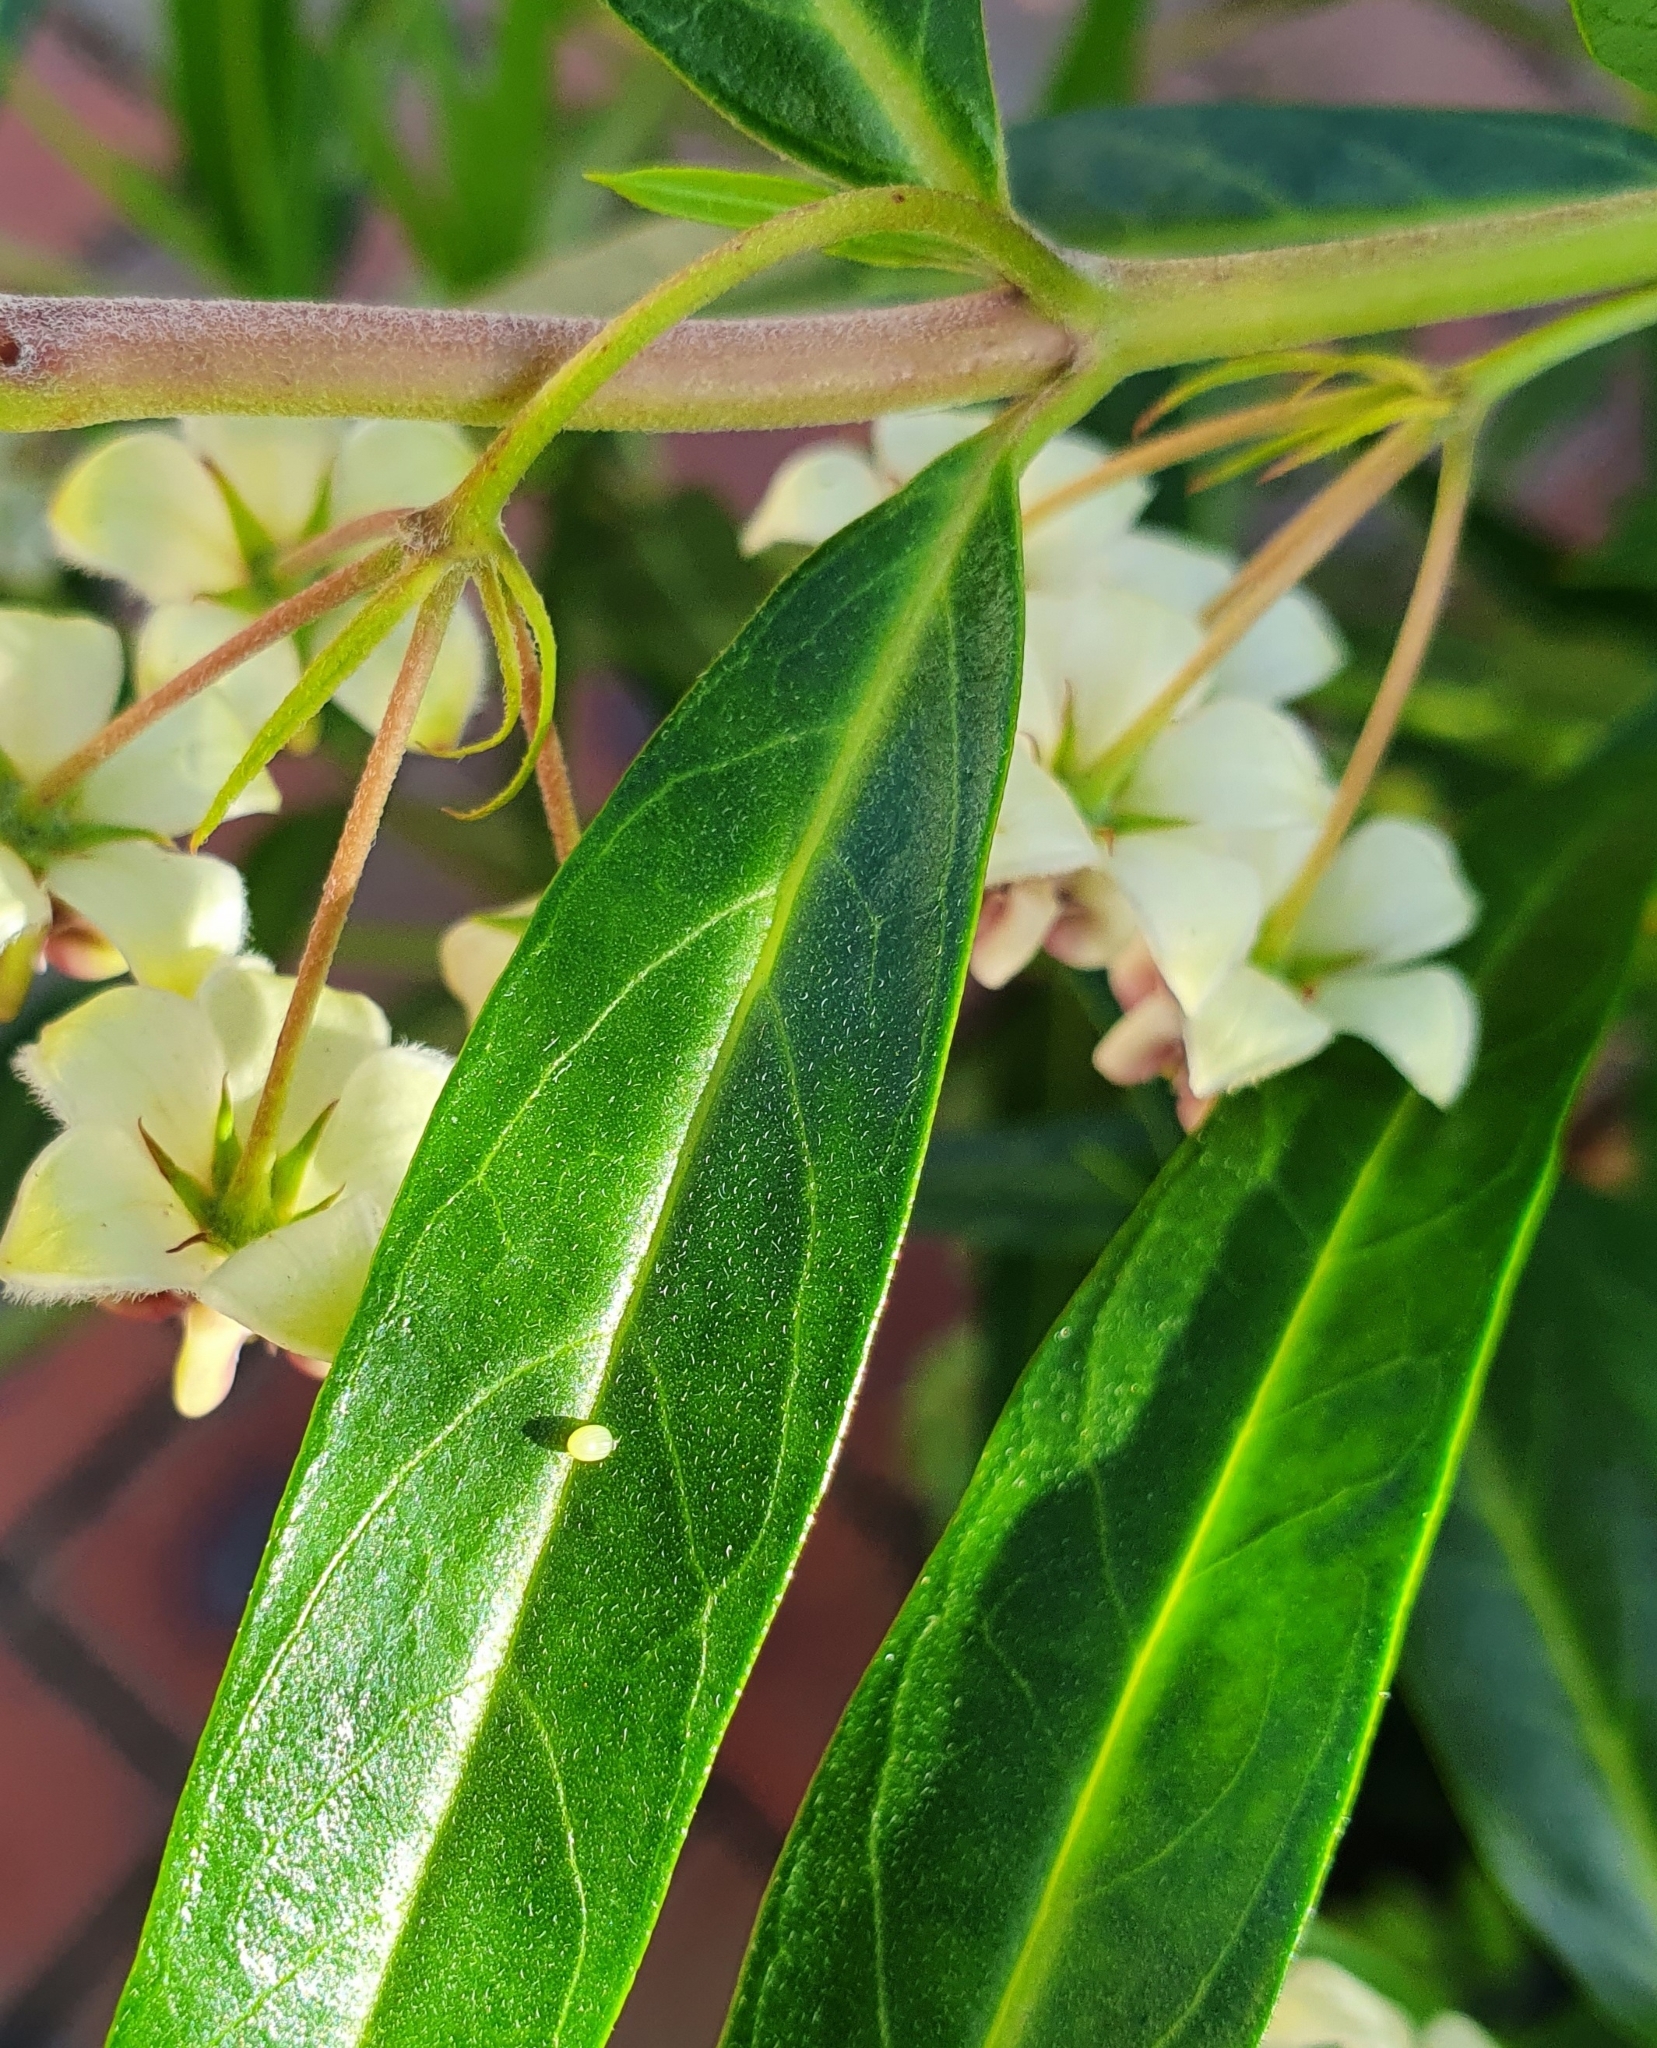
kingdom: Animalia
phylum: Arthropoda
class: Insecta
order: Lepidoptera
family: Nymphalidae
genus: Danaus
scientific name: Danaus plexippus
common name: Monarch
